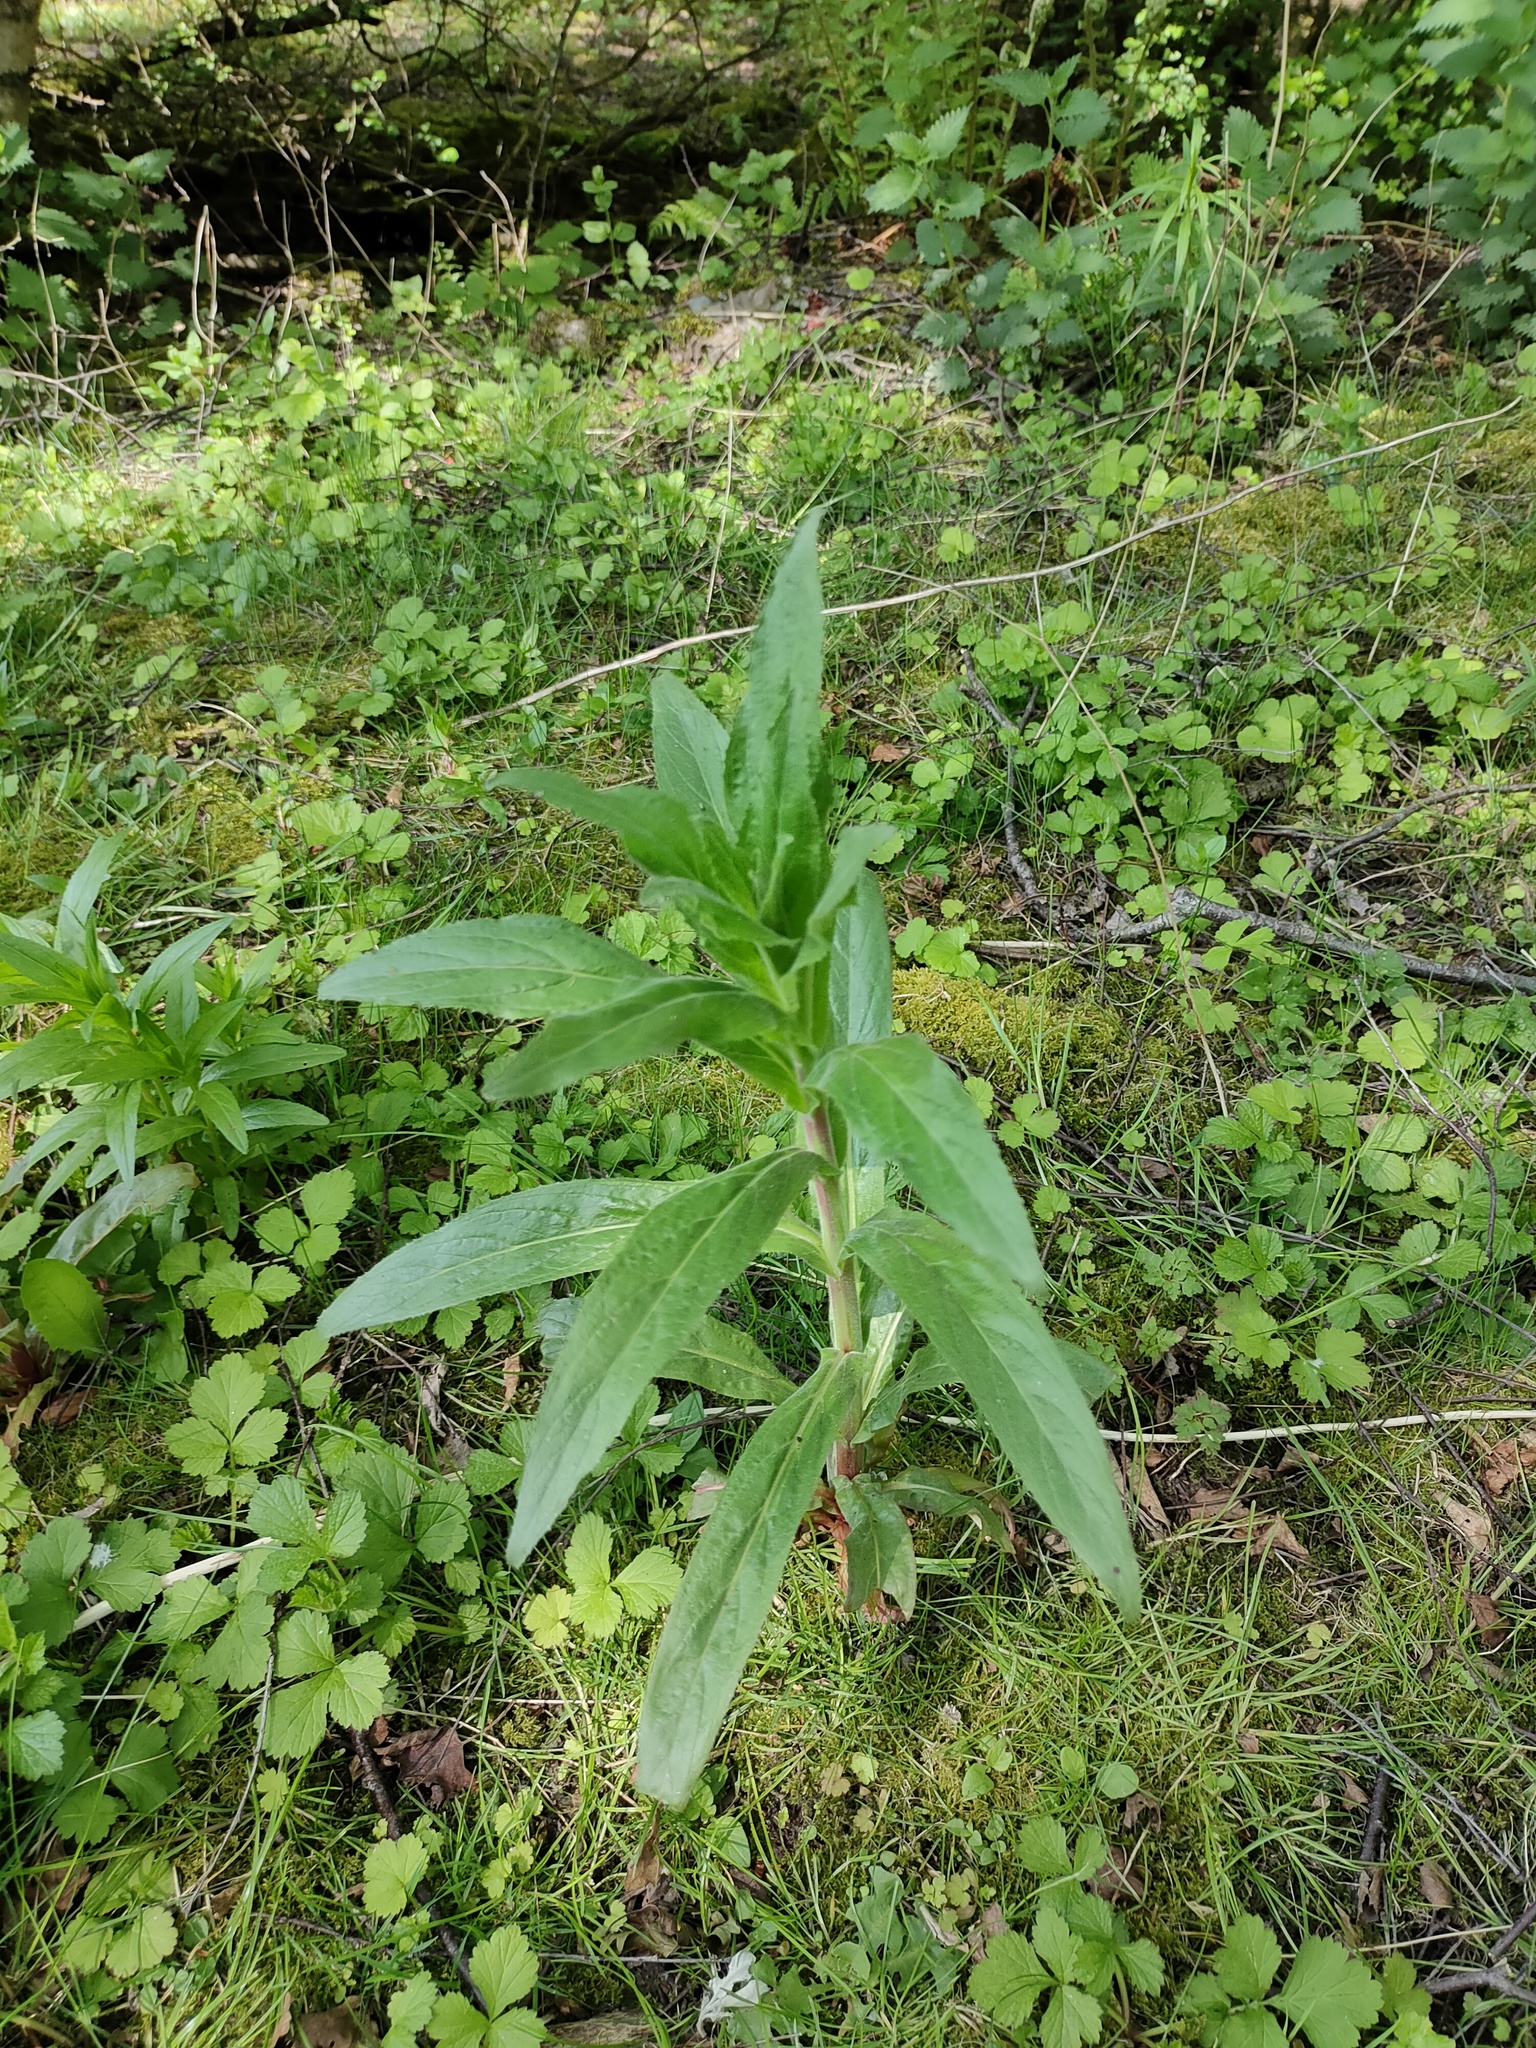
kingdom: Plantae
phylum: Tracheophyta
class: Magnoliopsida
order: Myrtales
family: Onagraceae
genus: Epilobium
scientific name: Epilobium hirsutum
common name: Great willowherb
